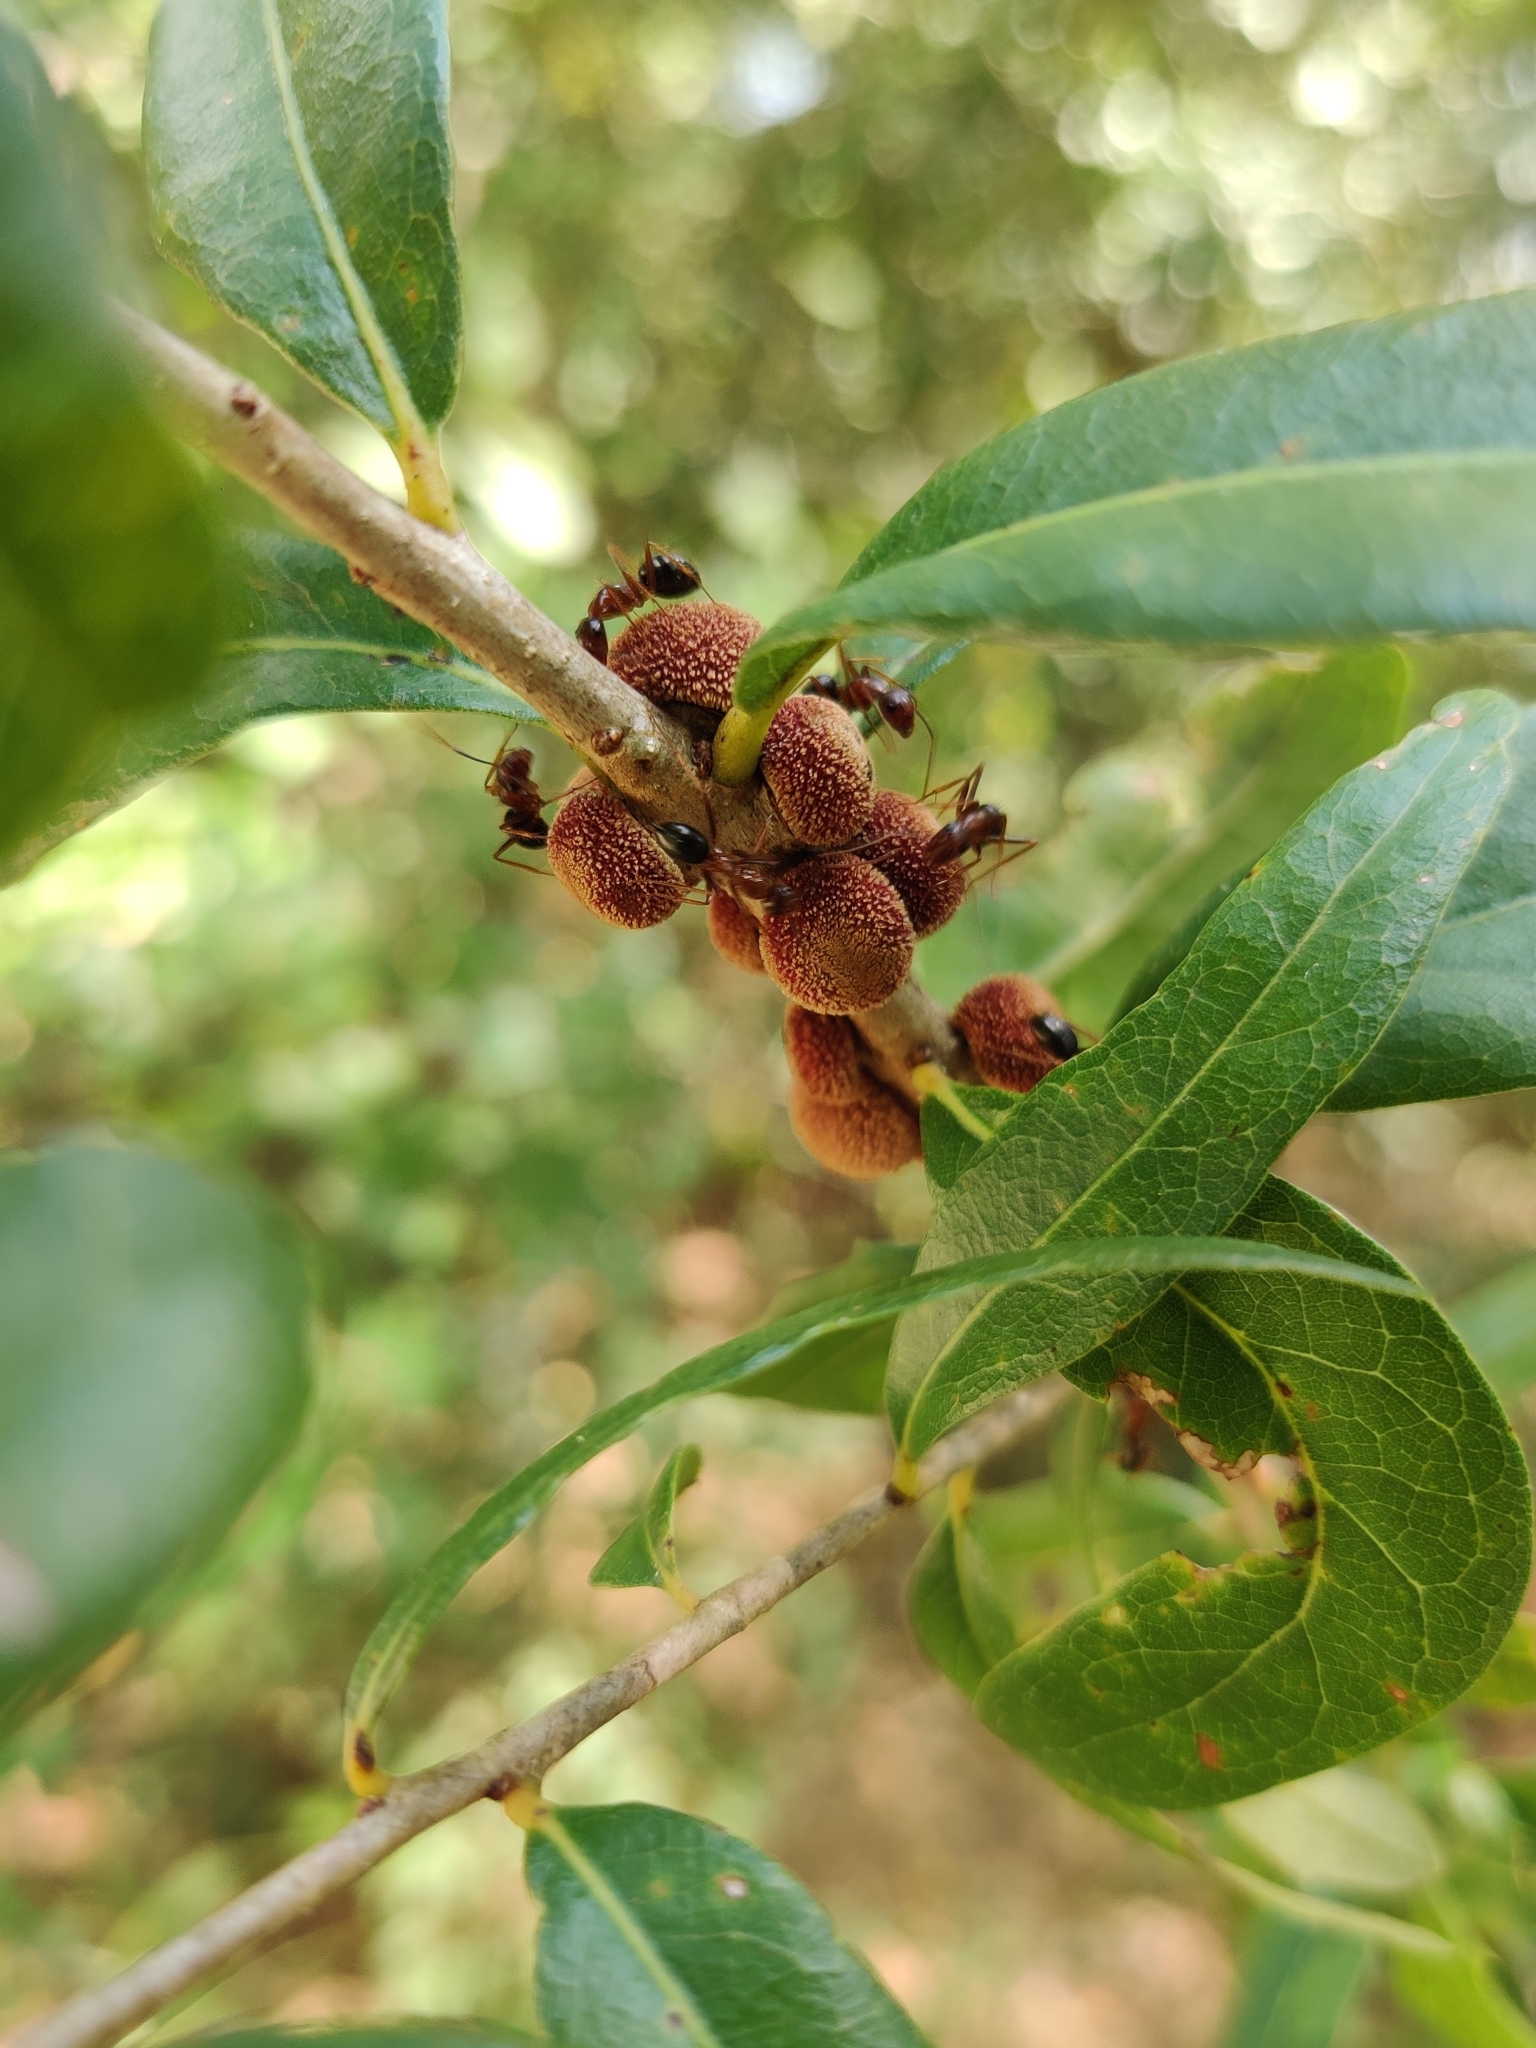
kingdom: Animalia
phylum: Arthropoda
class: Insecta
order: Hymenoptera
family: Cynipidae
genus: Disholcaspis
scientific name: Disholcaspis
